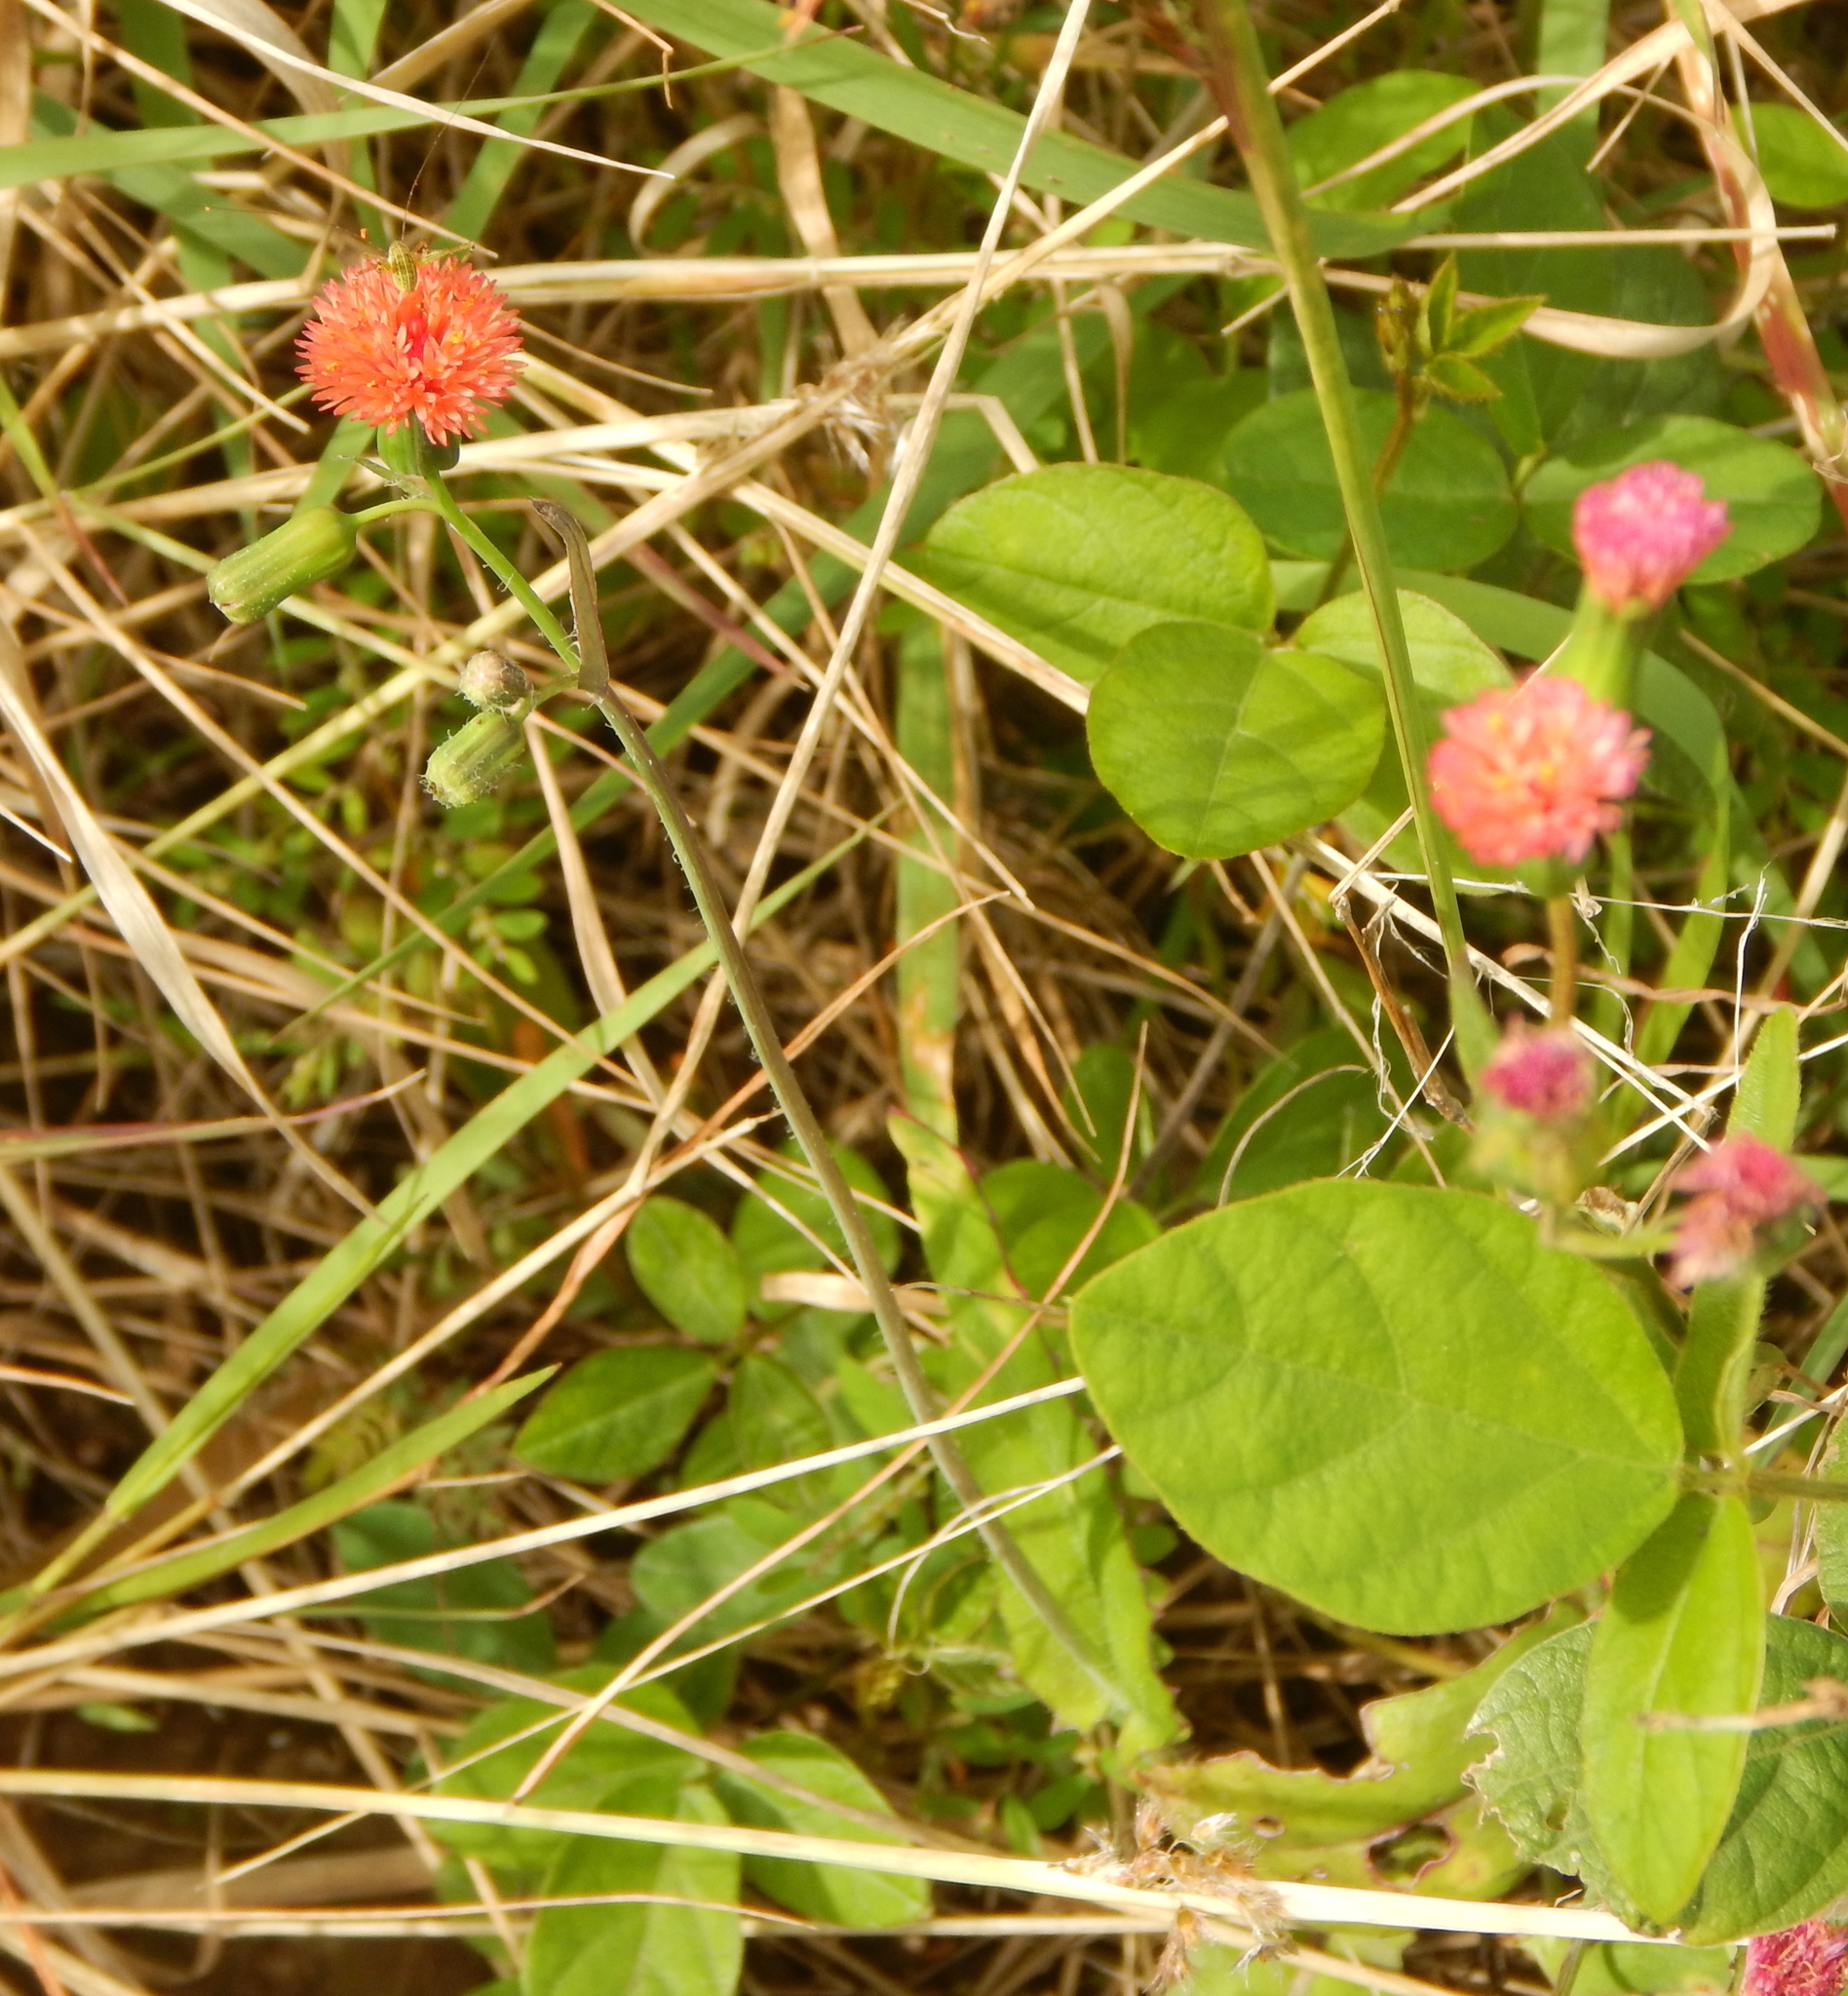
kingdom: Plantae
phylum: Tracheophyta
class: Magnoliopsida
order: Asterales
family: Asteraceae
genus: Emilia
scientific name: Emilia fosbergii
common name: Florida tasselflower
